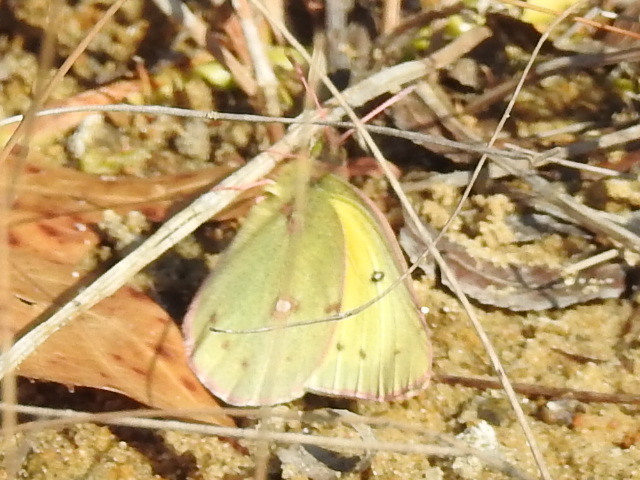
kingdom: Animalia
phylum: Arthropoda
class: Insecta
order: Lepidoptera
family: Pieridae
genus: Colias
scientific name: Colias eurytheme
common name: Alfalfa butterfly
